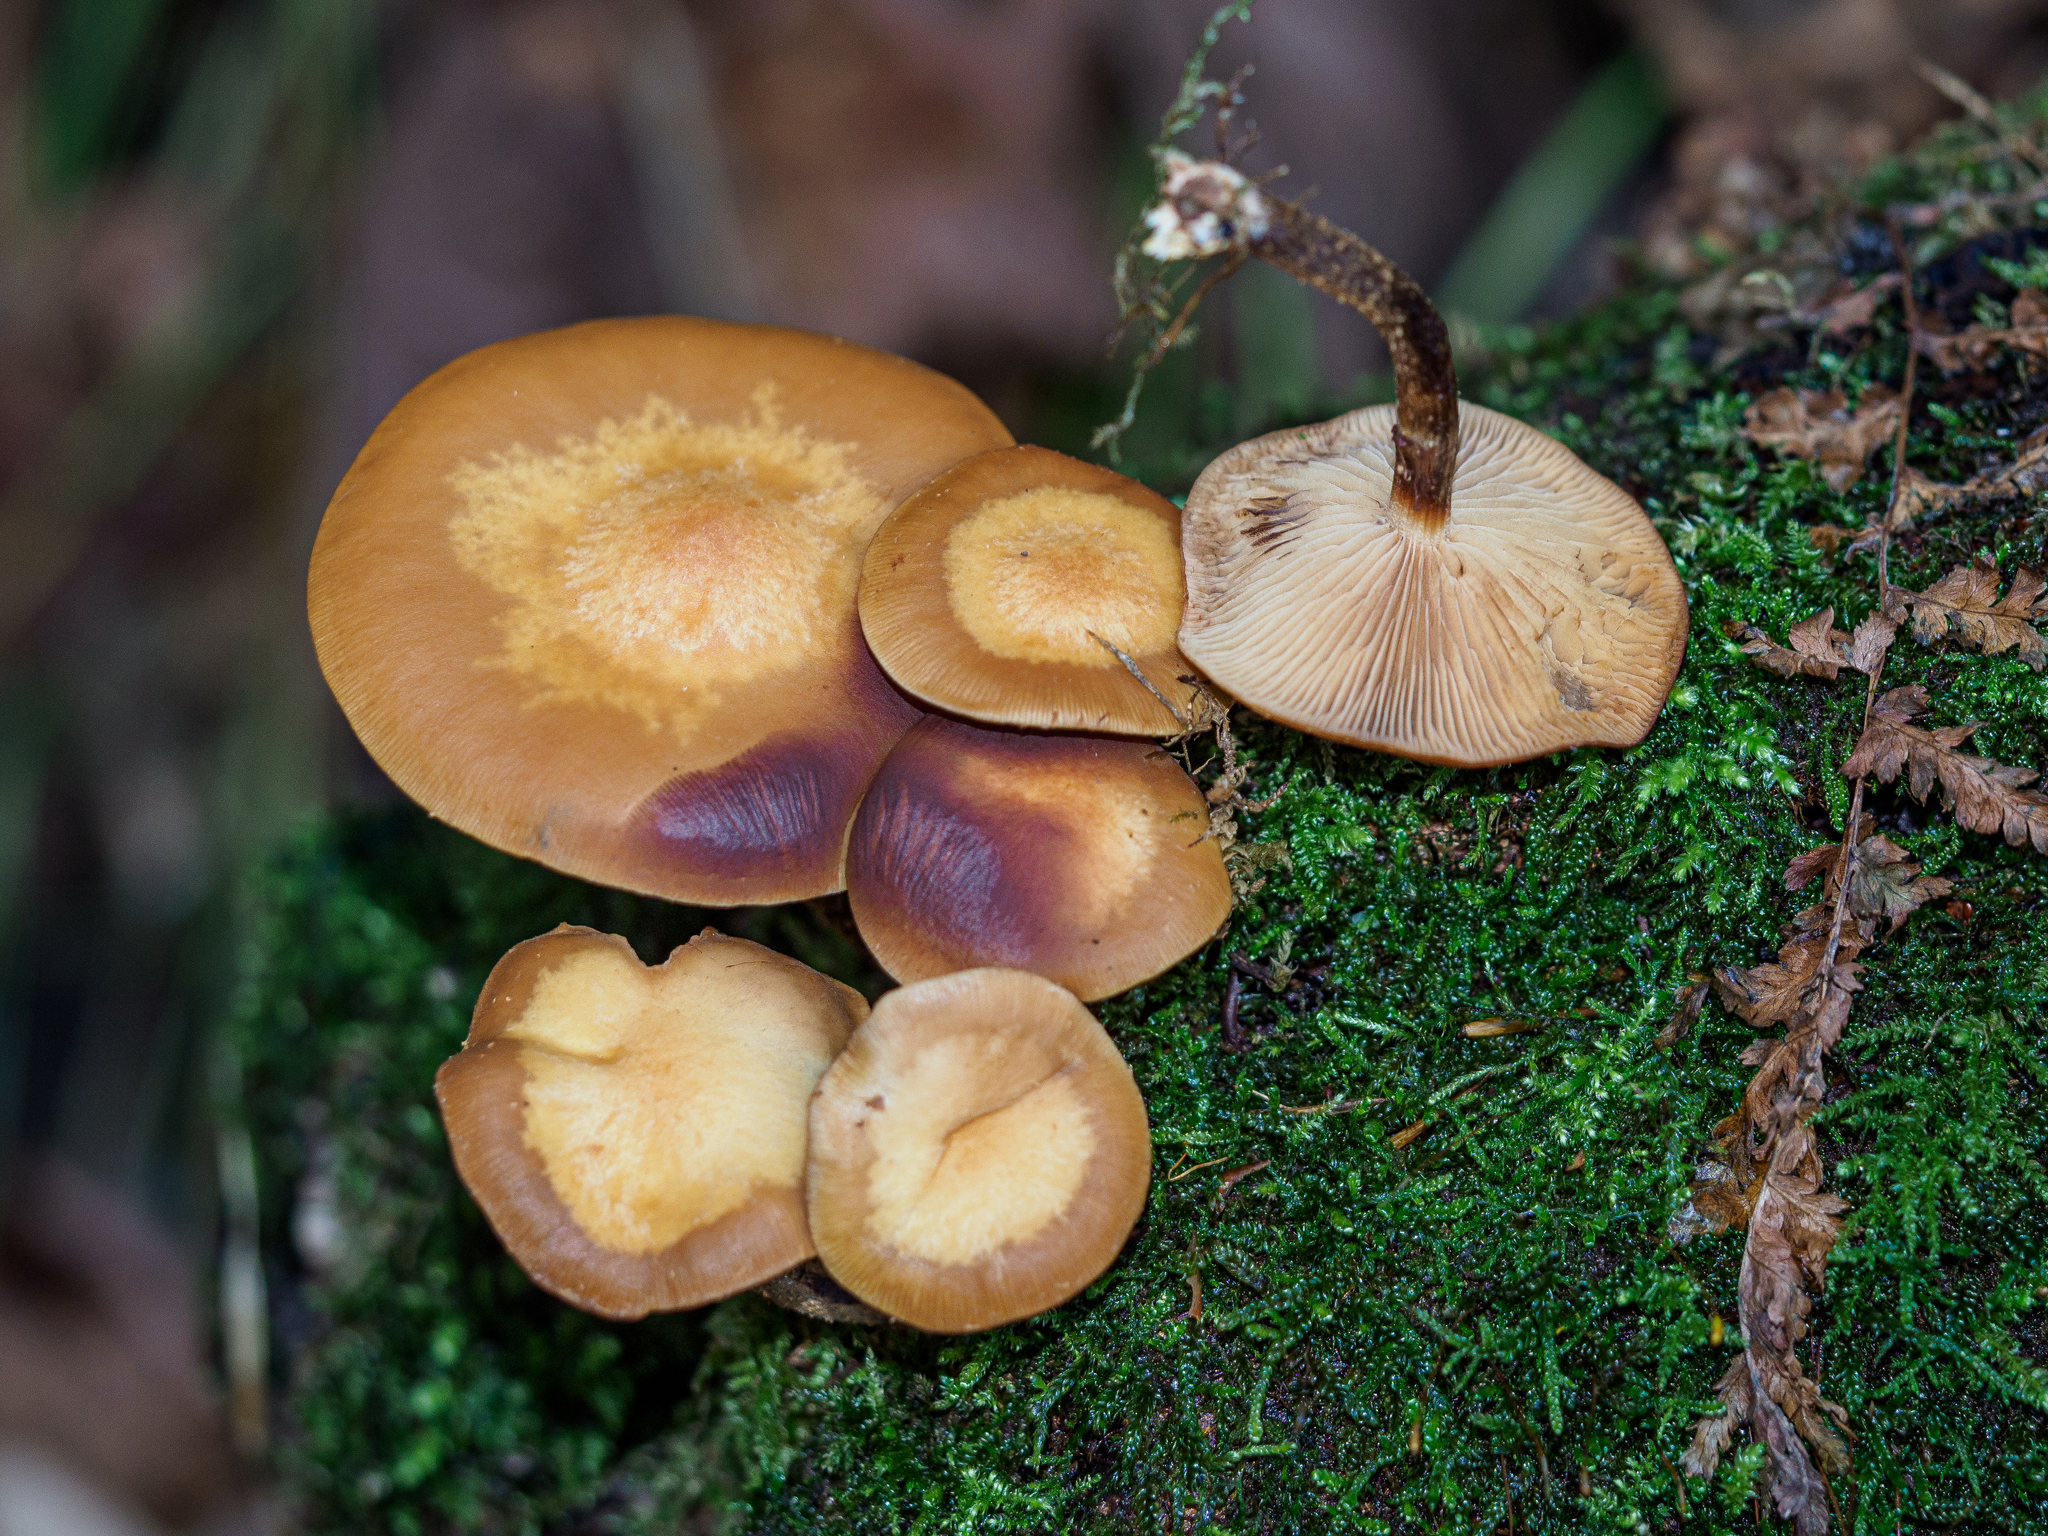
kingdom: Fungi
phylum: Basidiomycota
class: Agaricomycetes
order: Agaricales
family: Strophariaceae
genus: Kuehneromyces
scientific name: Kuehneromyces mutabilis
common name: Sheathed woodtuft
